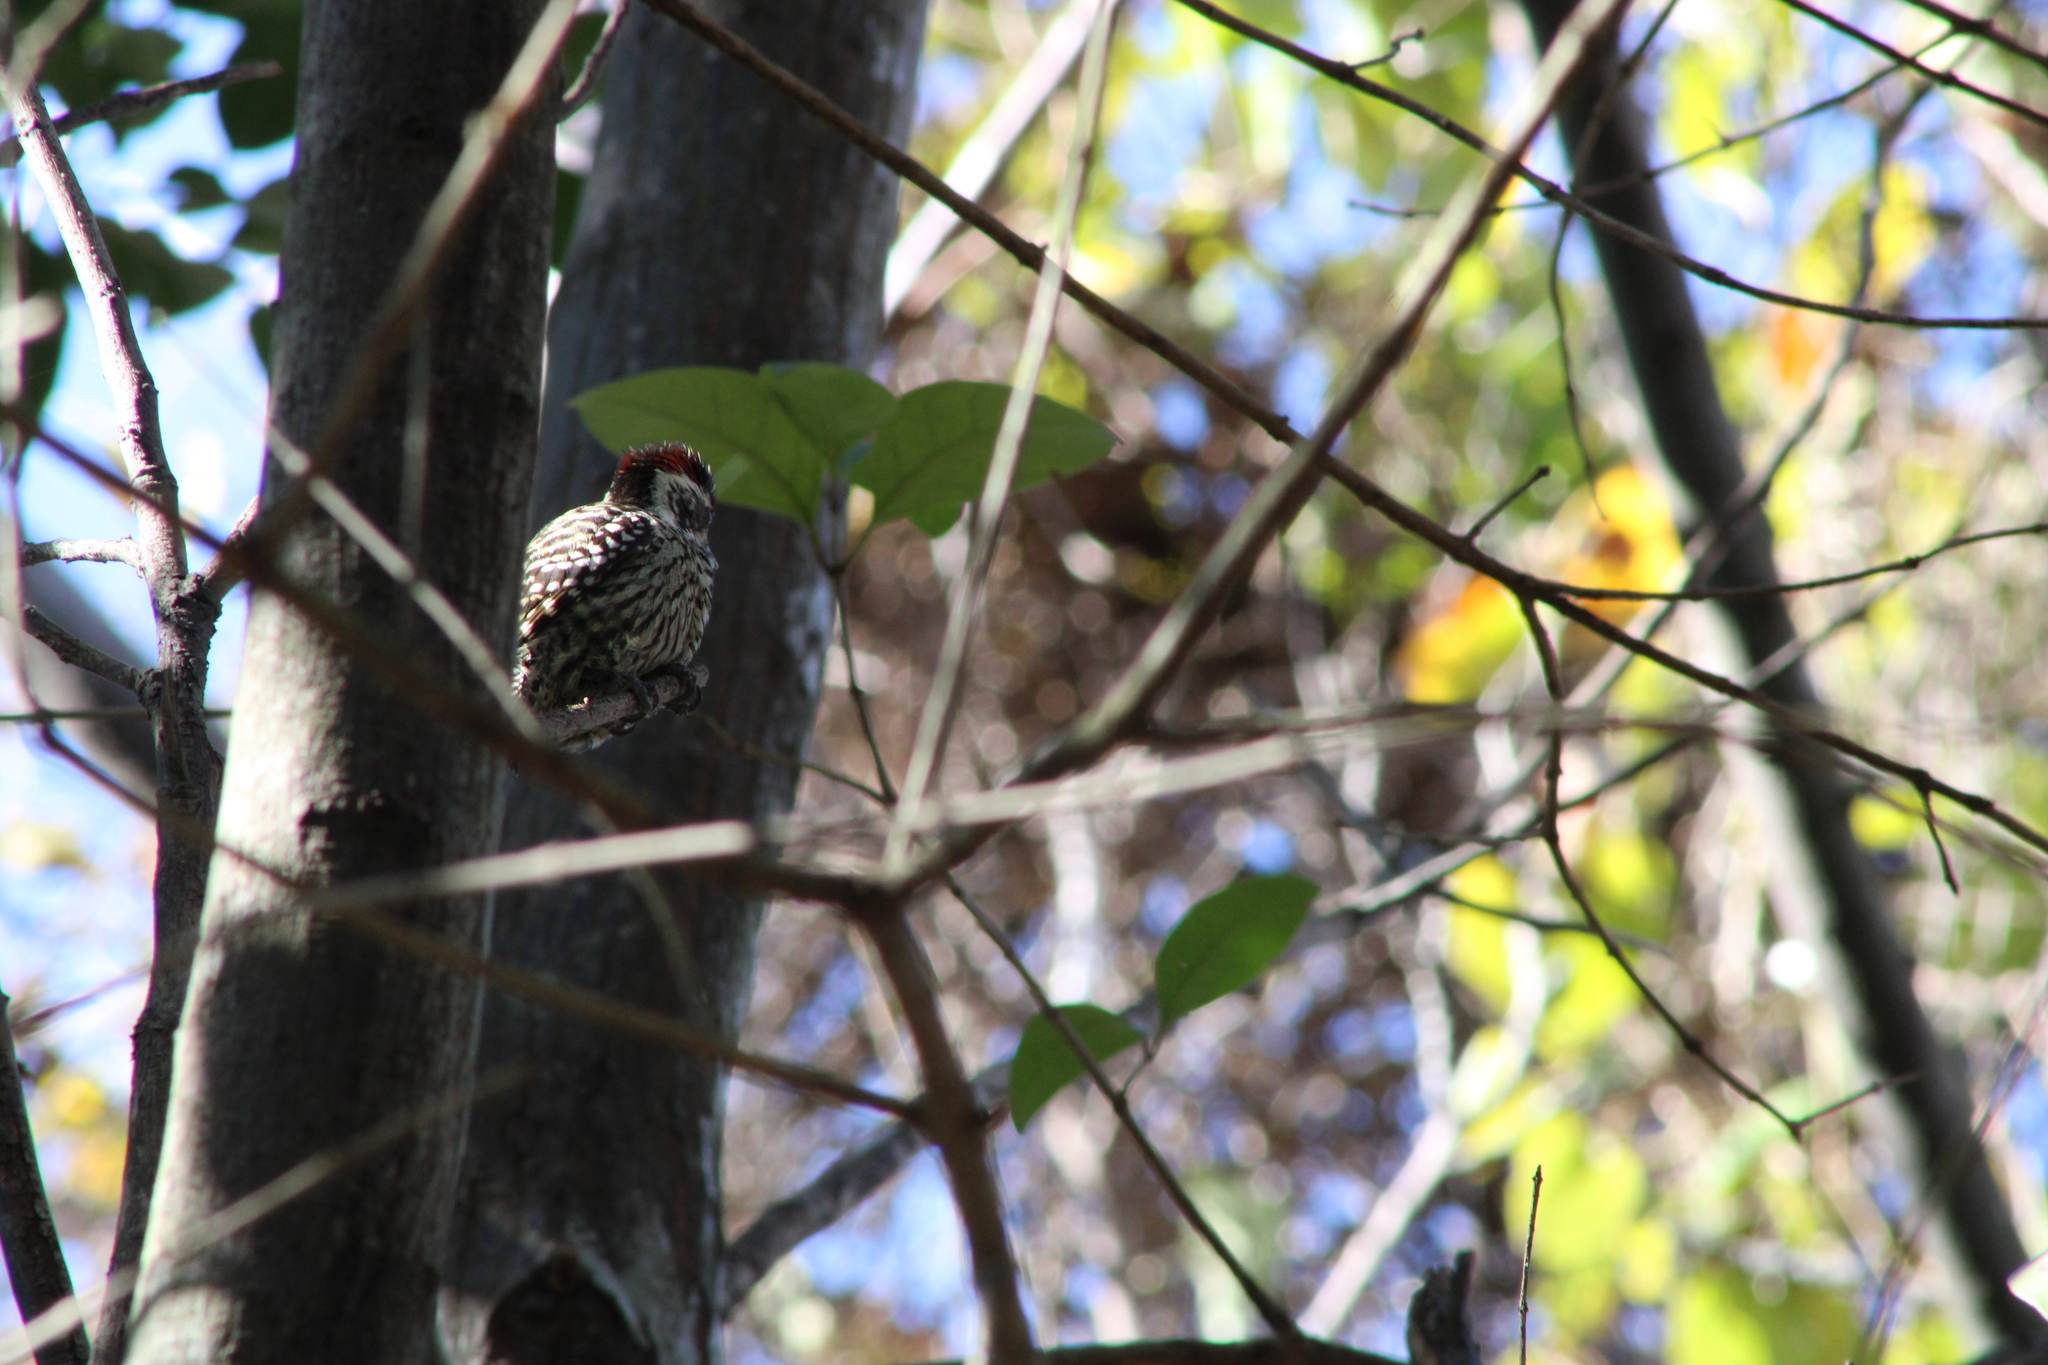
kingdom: Animalia
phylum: Chordata
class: Aves
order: Piciformes
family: Picidae
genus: Veniliornis
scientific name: Veniliornis mixtus
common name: Checkered woodpecker
